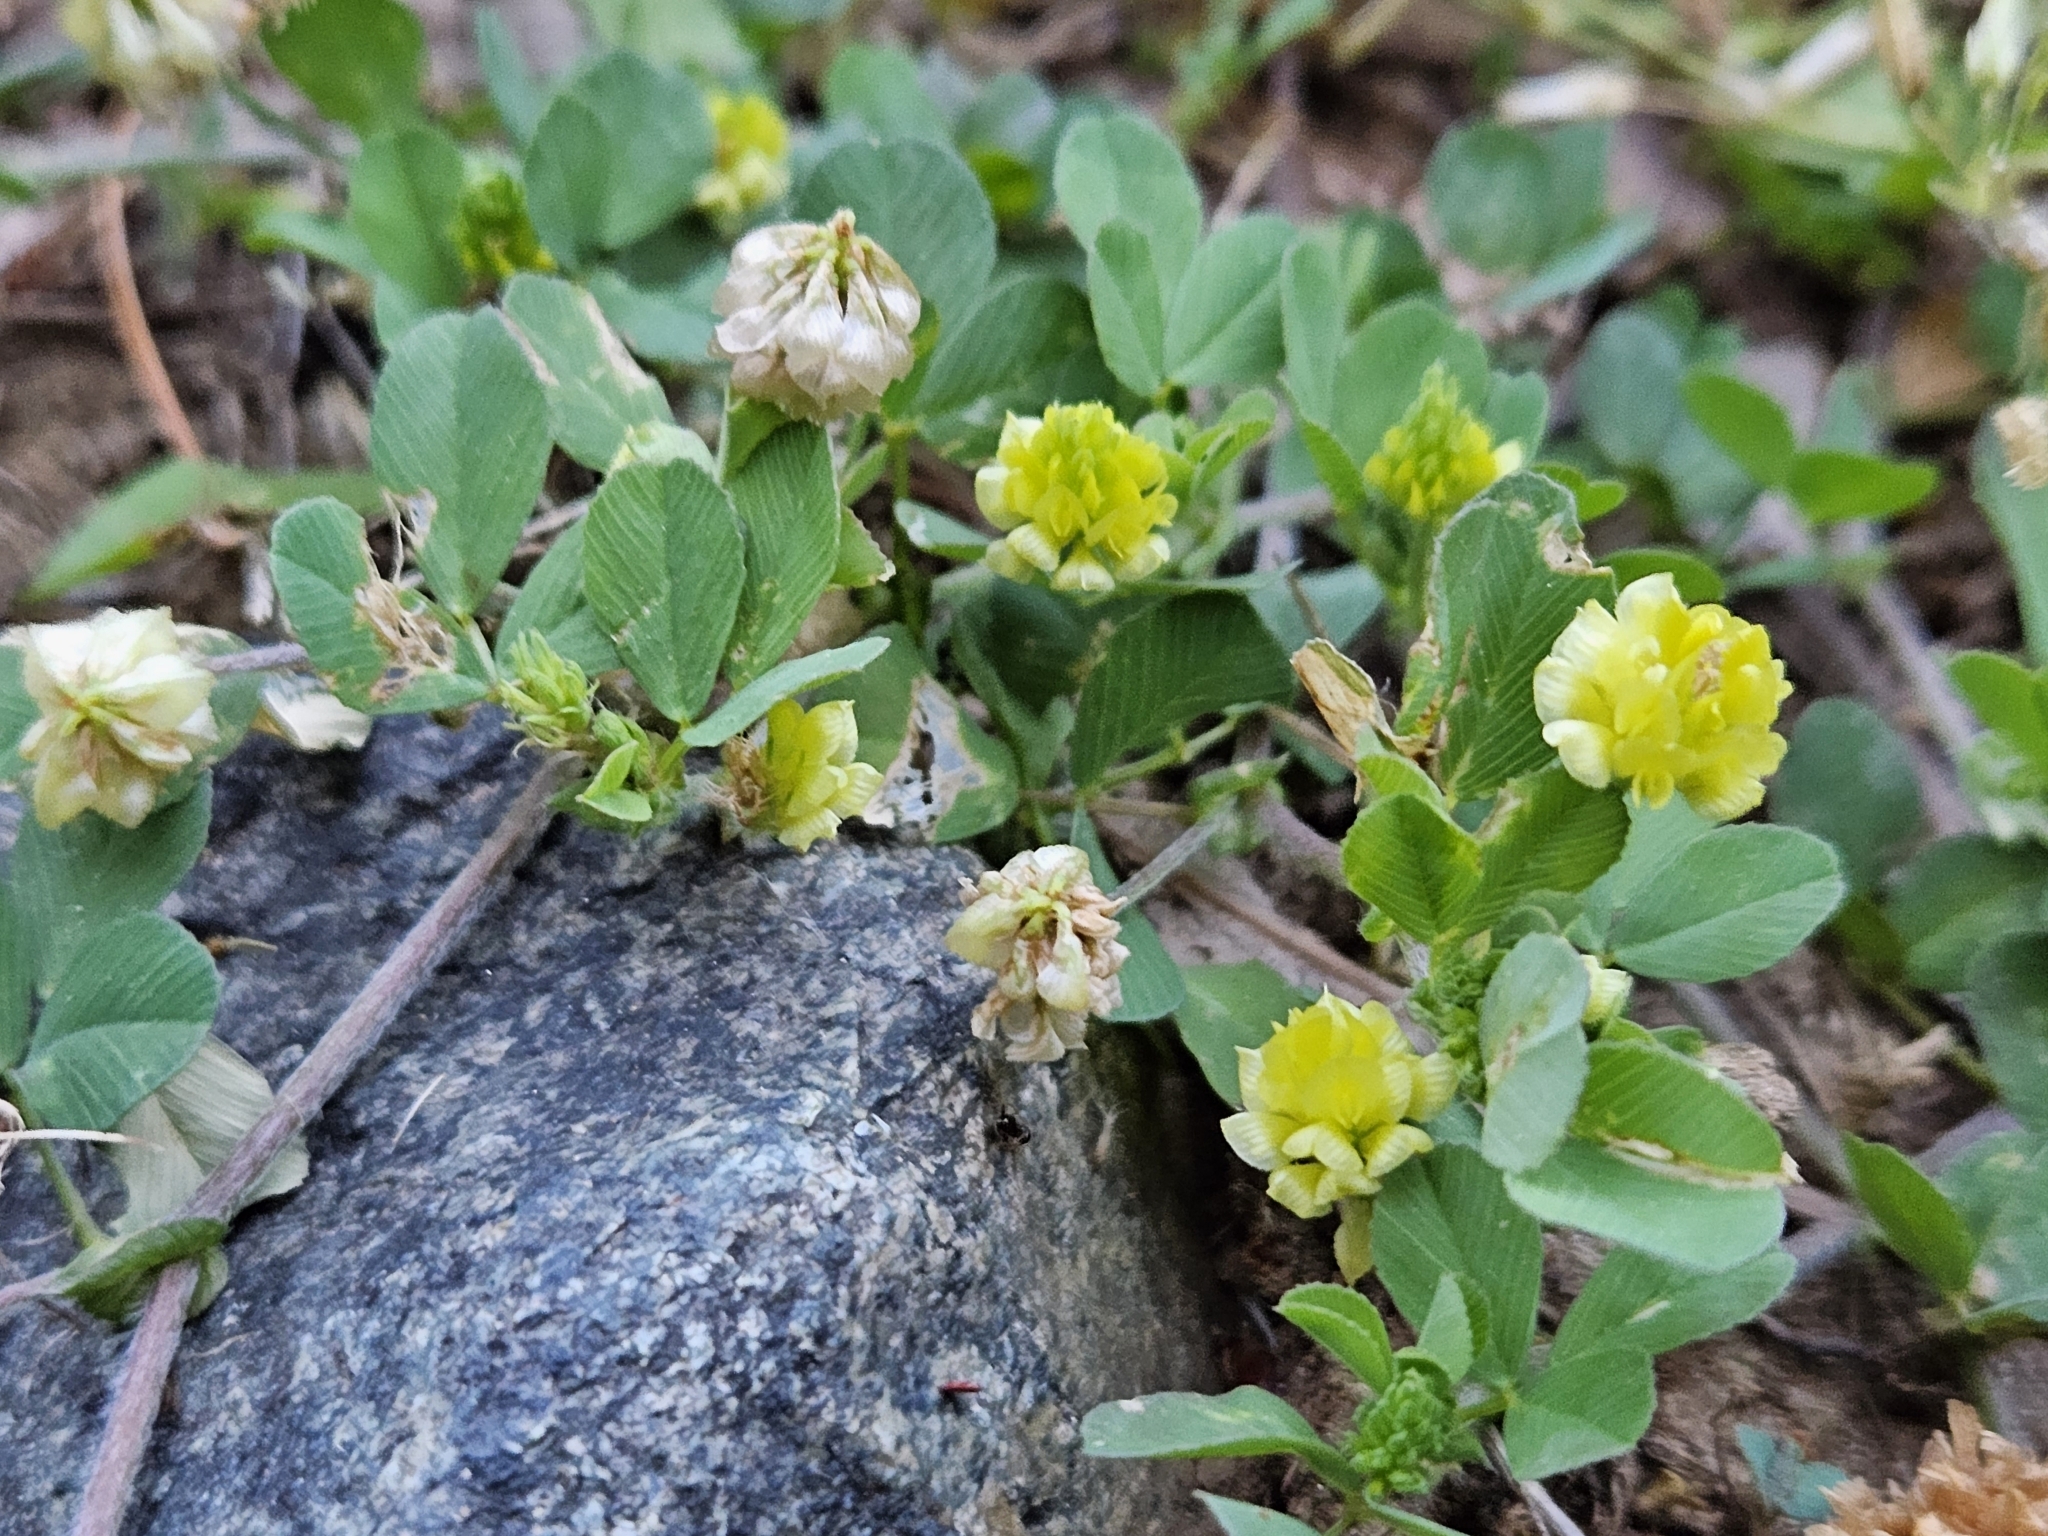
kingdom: Plantae
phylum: Tracheophyta
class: Magnoliopsida
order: Fabales
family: Fabaceae
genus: Trifolium
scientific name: Trifolium campestre
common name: Field clover
